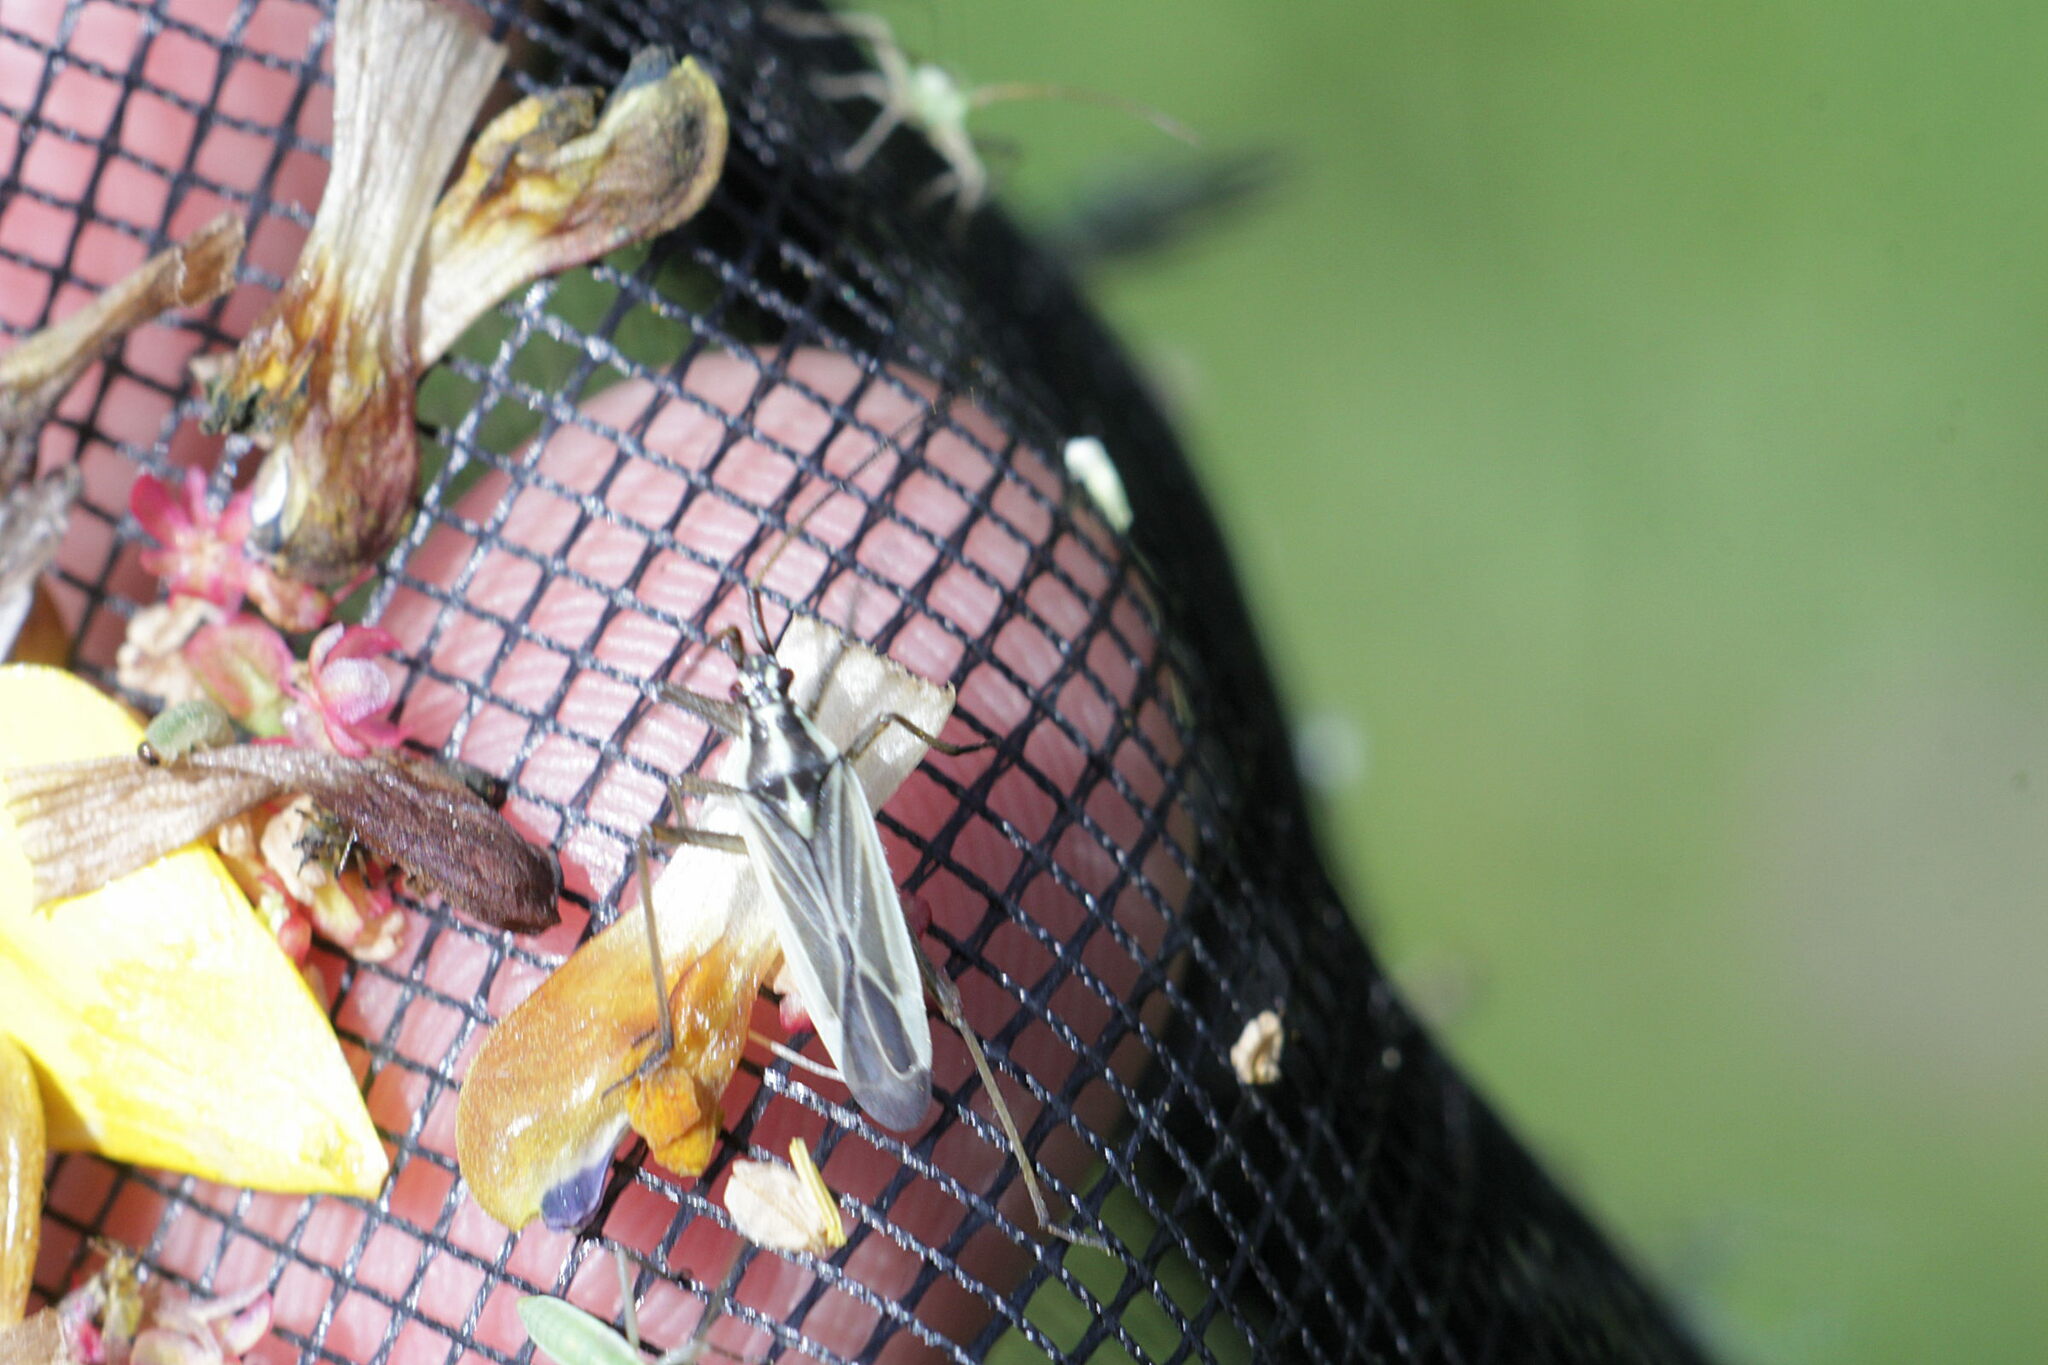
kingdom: Animalia
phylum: Arthropoda
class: Insecta
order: Hemiptera
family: Miridae
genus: Leptopterna
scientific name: Leptopterna dolabrata
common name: Meadow plant bug
